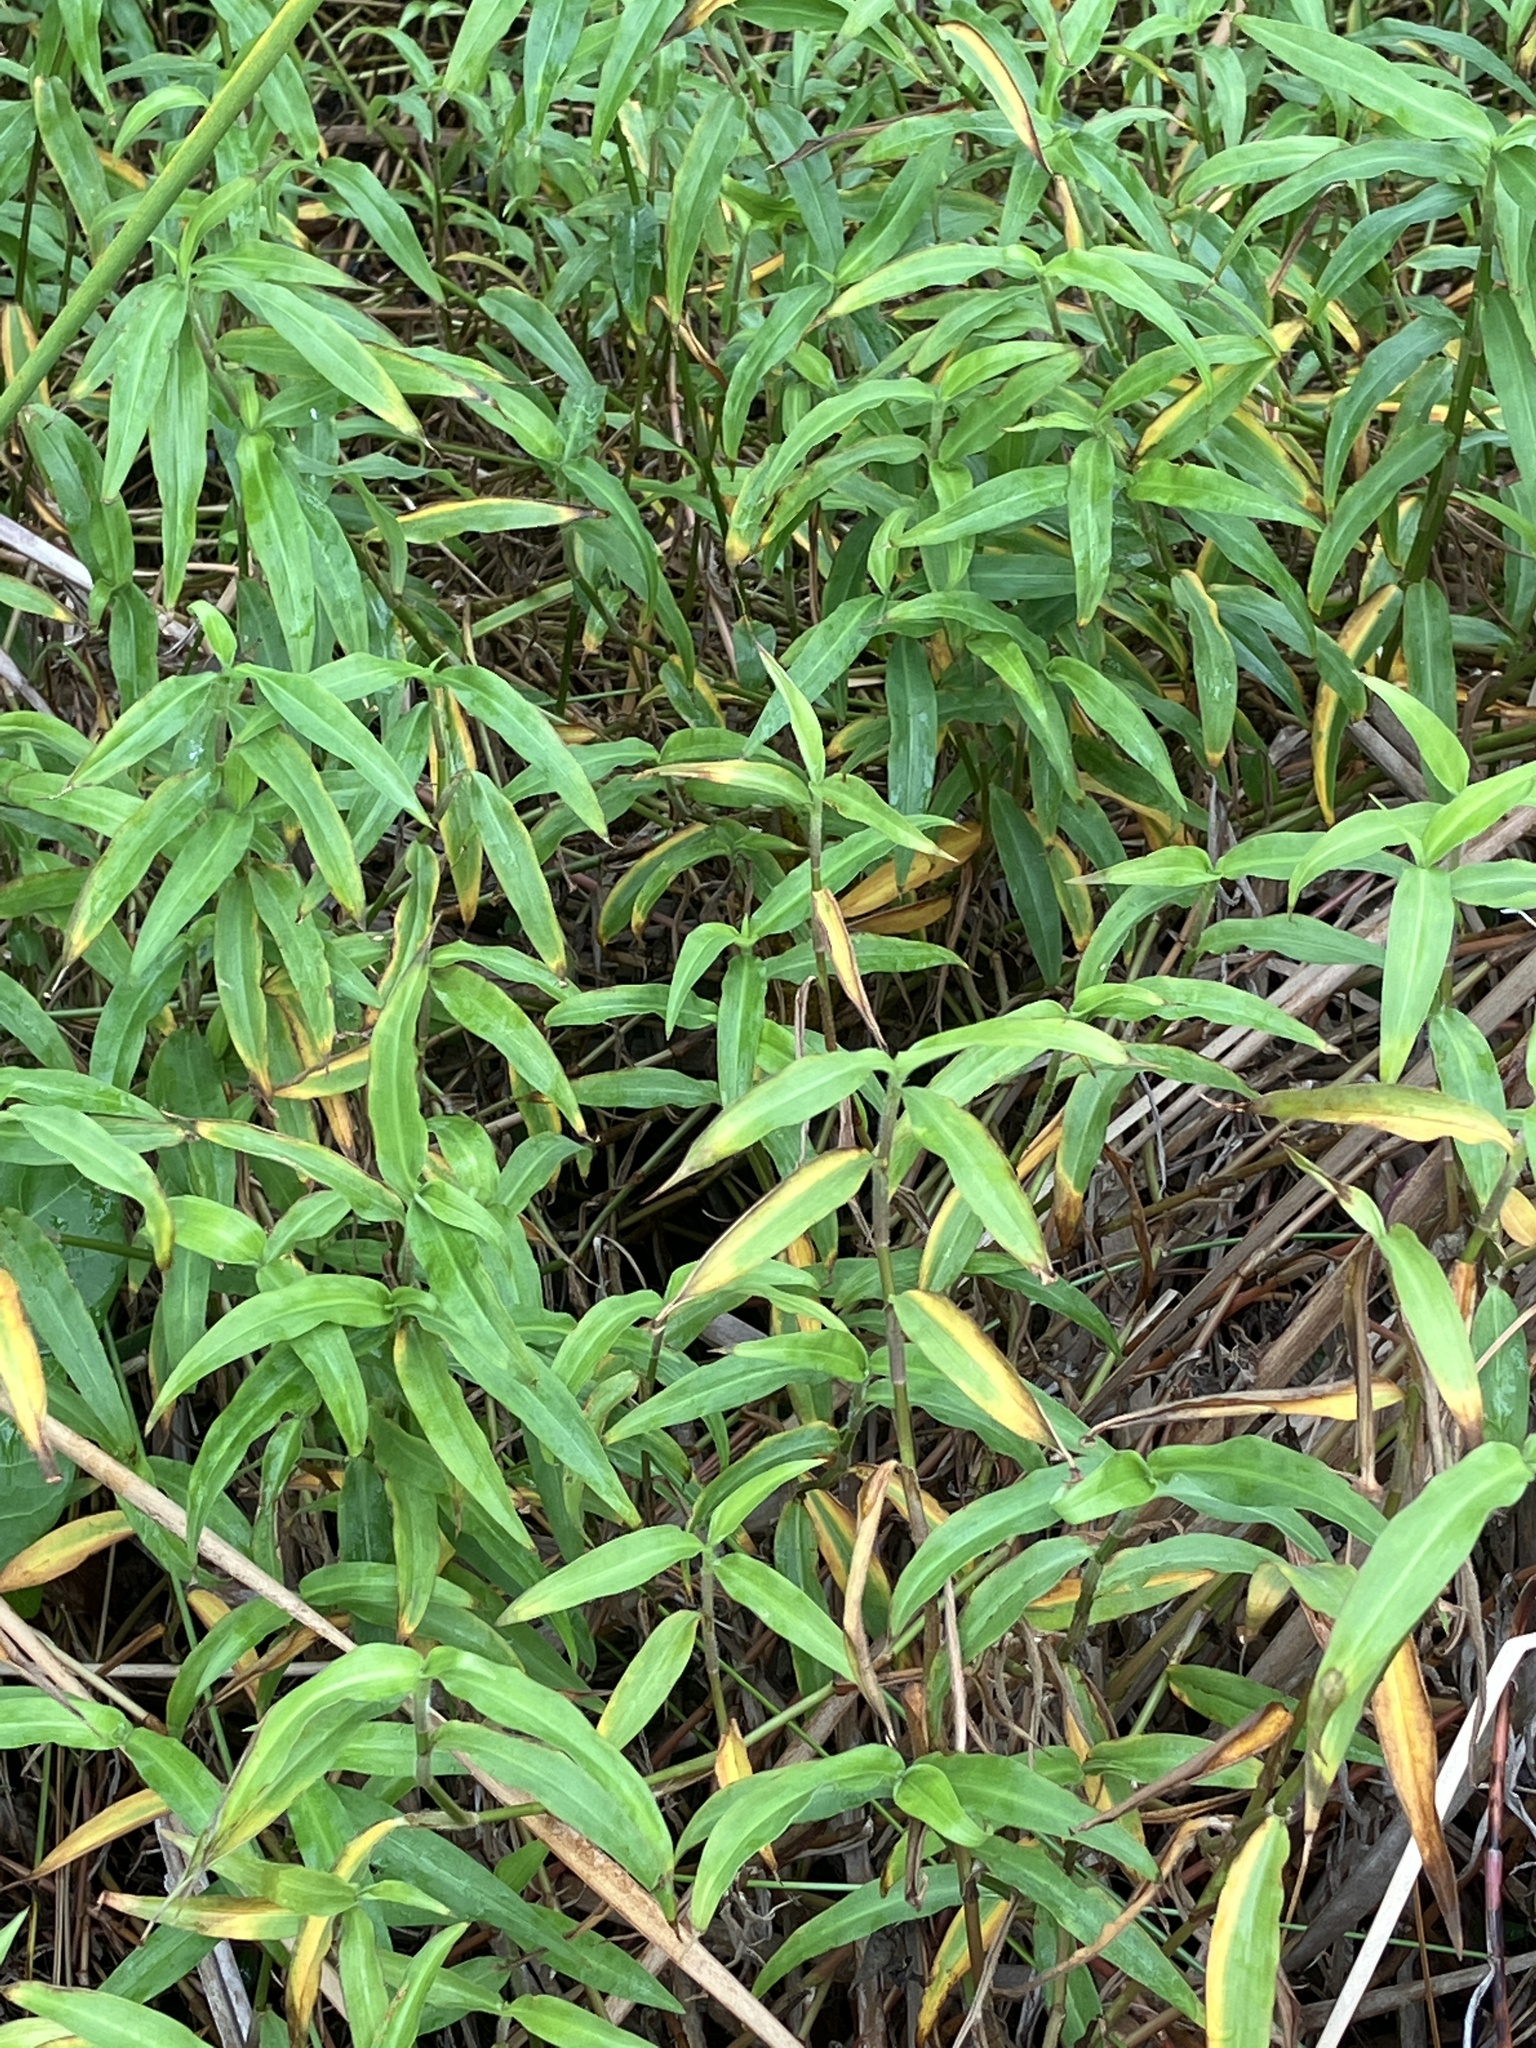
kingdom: Plantae
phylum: Tracheophyta
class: Liliopsida
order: Commelinales
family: Commelinaceae
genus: Commelina
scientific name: Commelina diffusa
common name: Climbing dayflower
